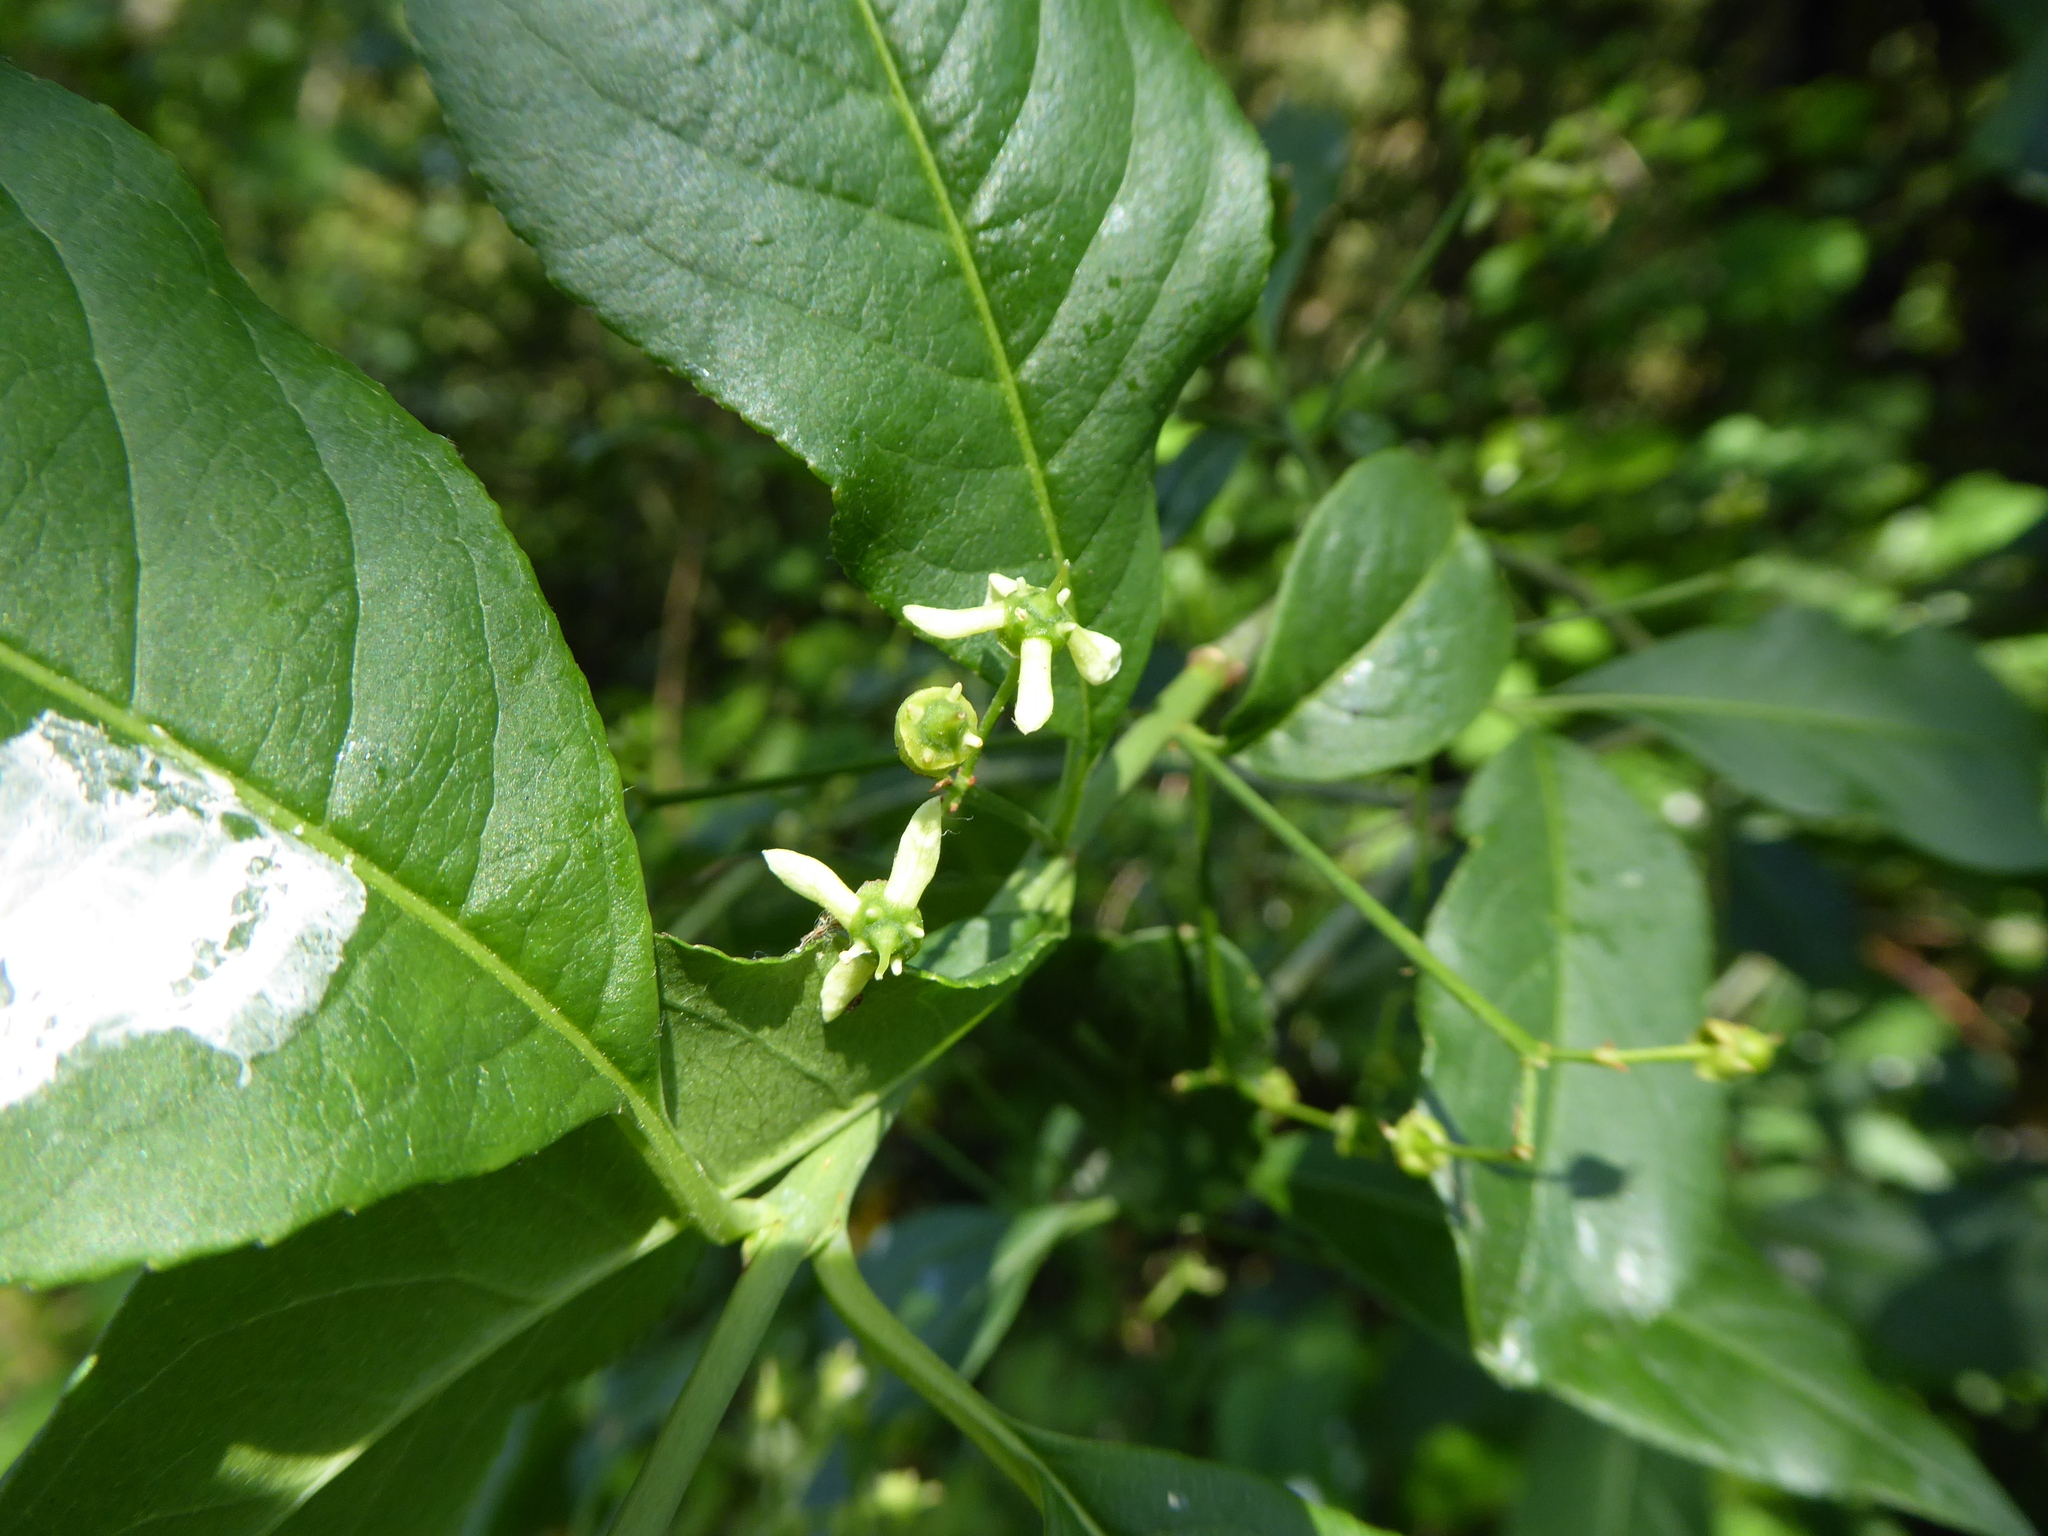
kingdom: Plantae
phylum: Tracheophyta
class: Magnoliopsida
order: Celastrales
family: Celastraceae
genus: Euonymus
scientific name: Euonymus europaeus
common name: Spindle
